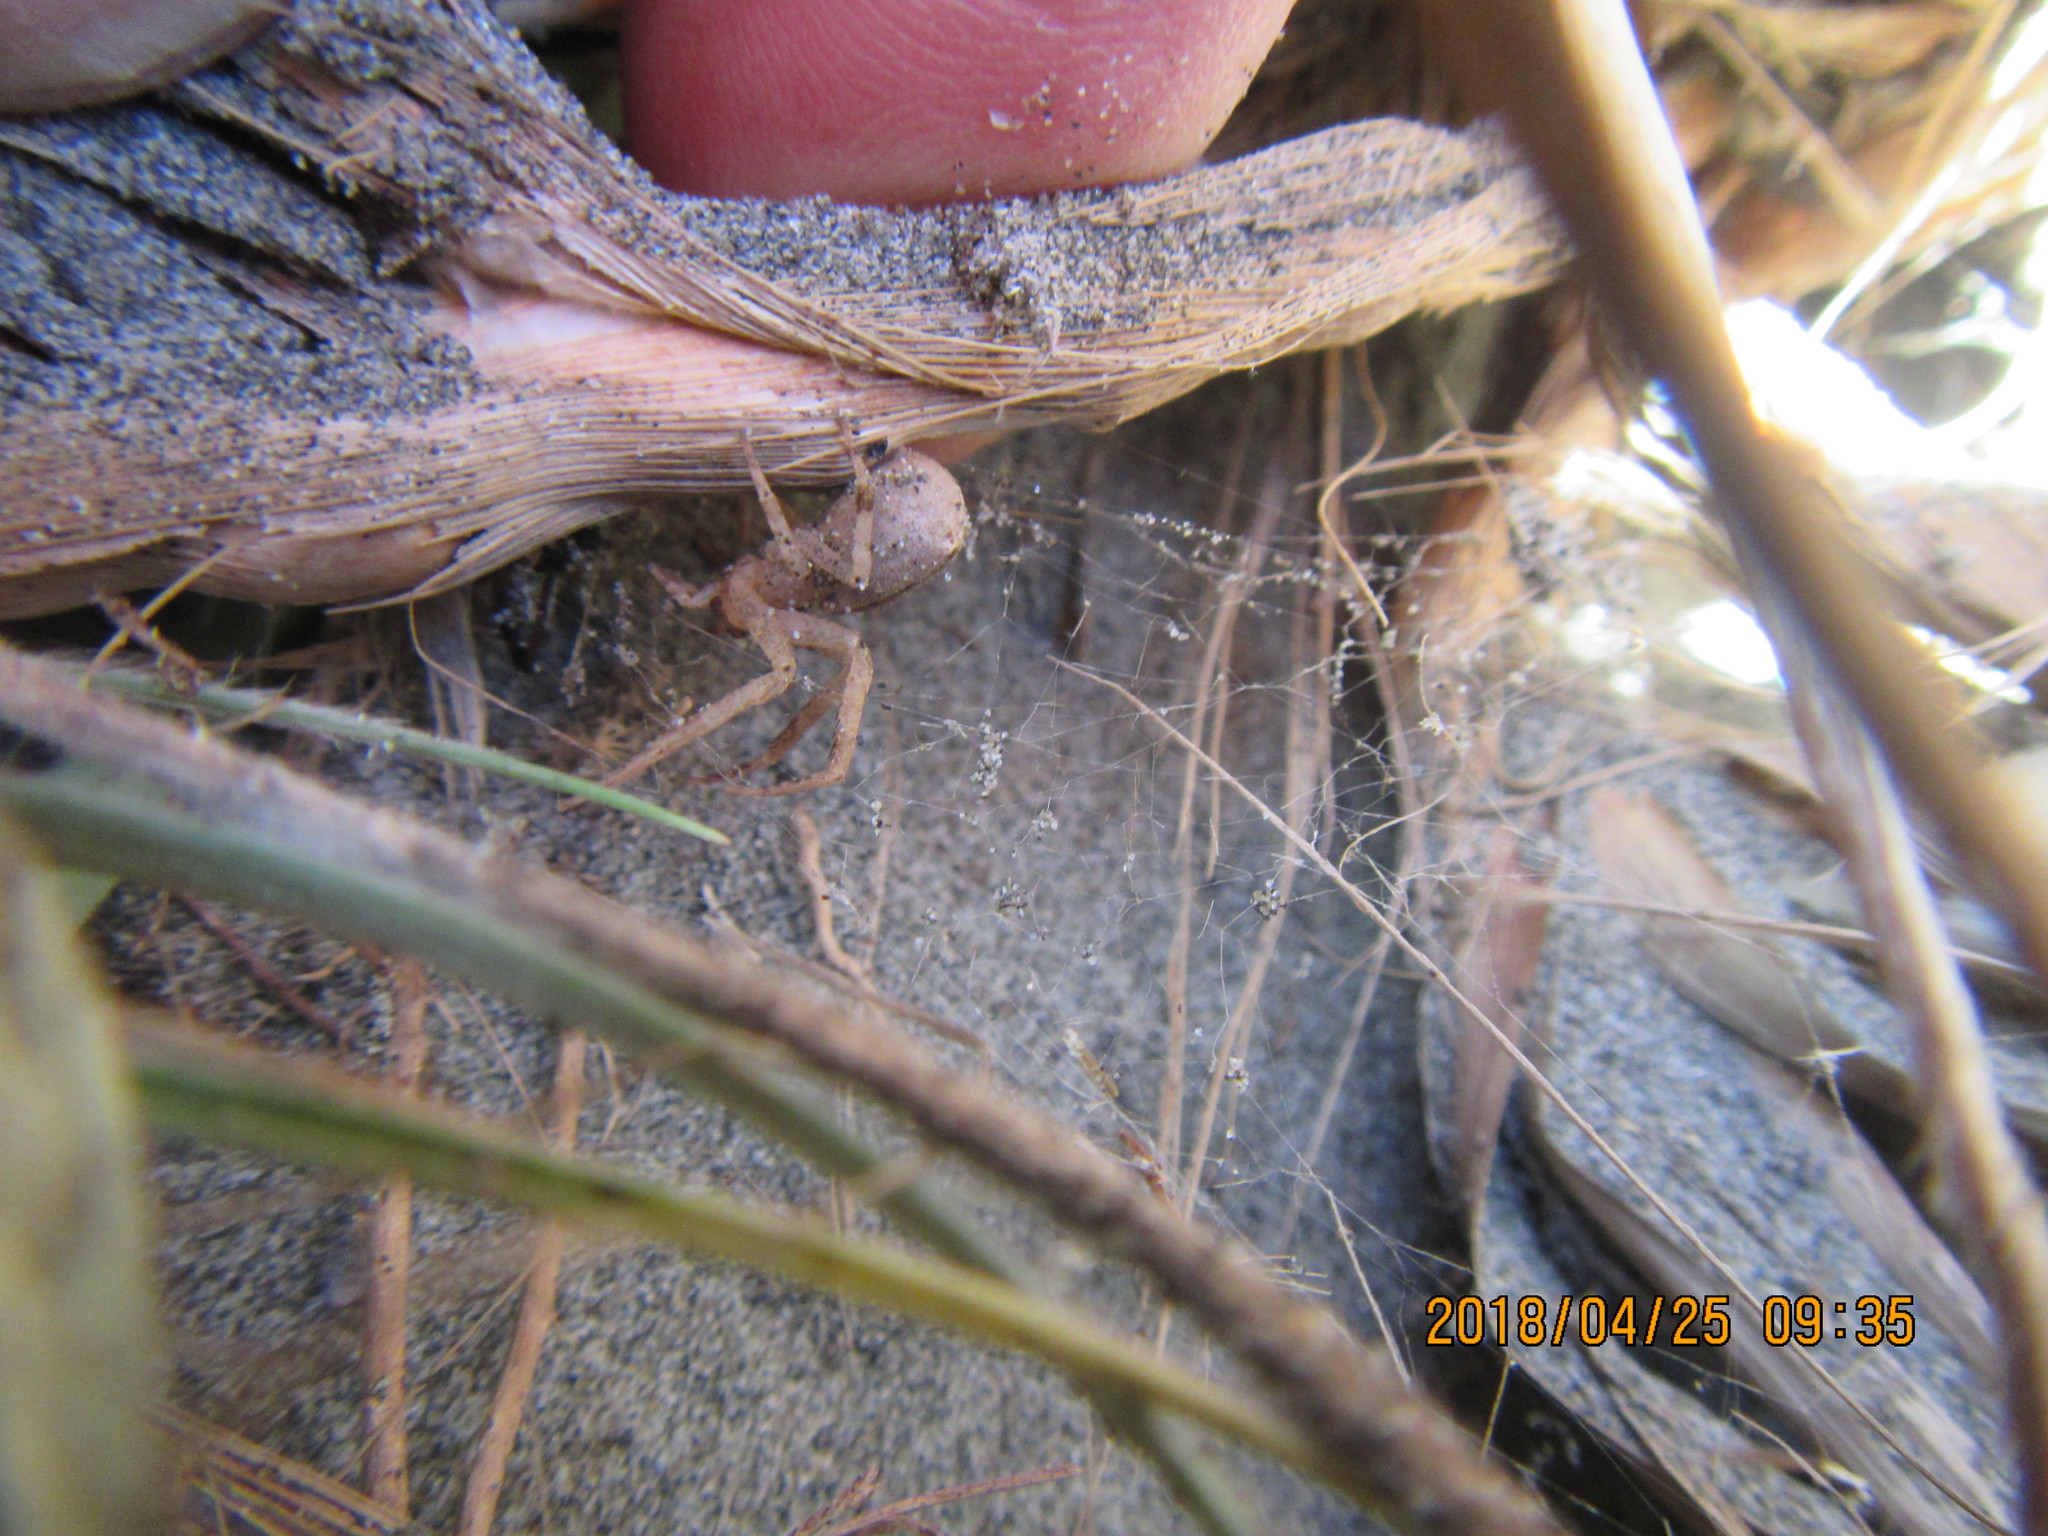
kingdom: Animalia
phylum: Arthropoda
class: Arachnida
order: Araneae
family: Thomisidae
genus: Sidymella
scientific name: Sidymella trapezia
